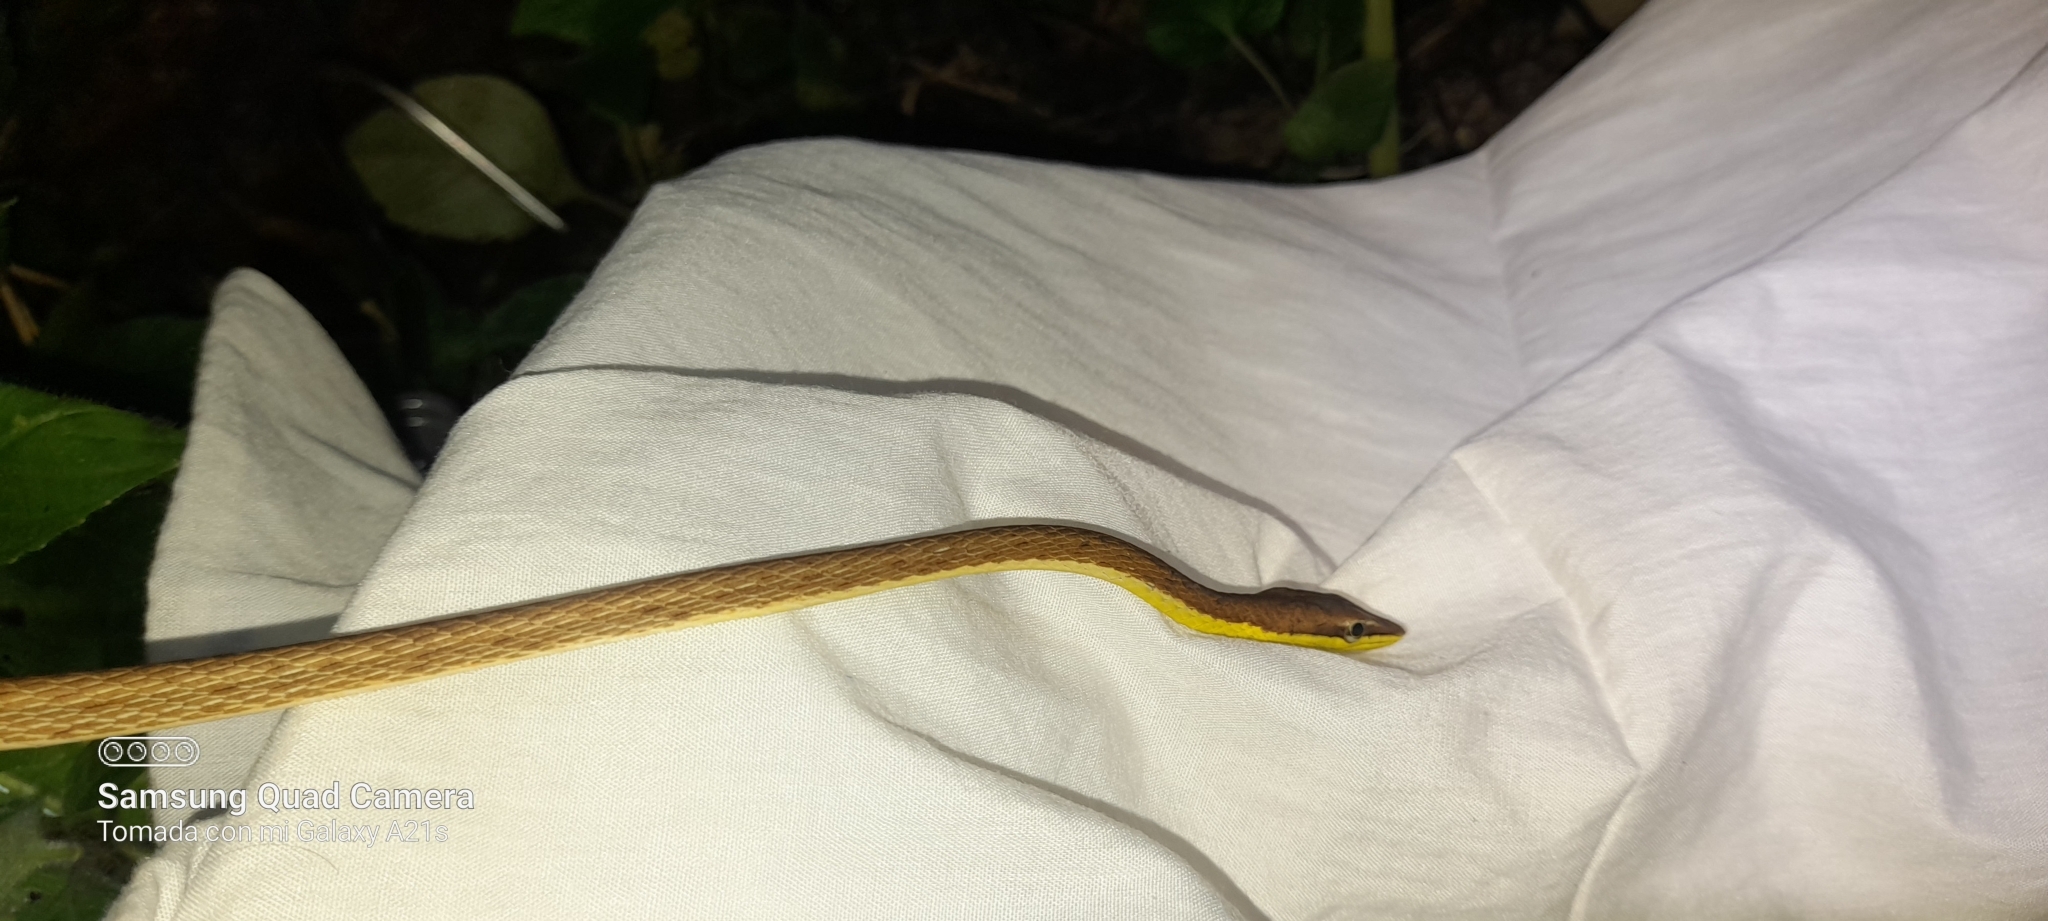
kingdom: Animalia
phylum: Chordata
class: Squamata
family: Colubridae
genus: Oxybelis
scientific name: Oxybelis vittatus
